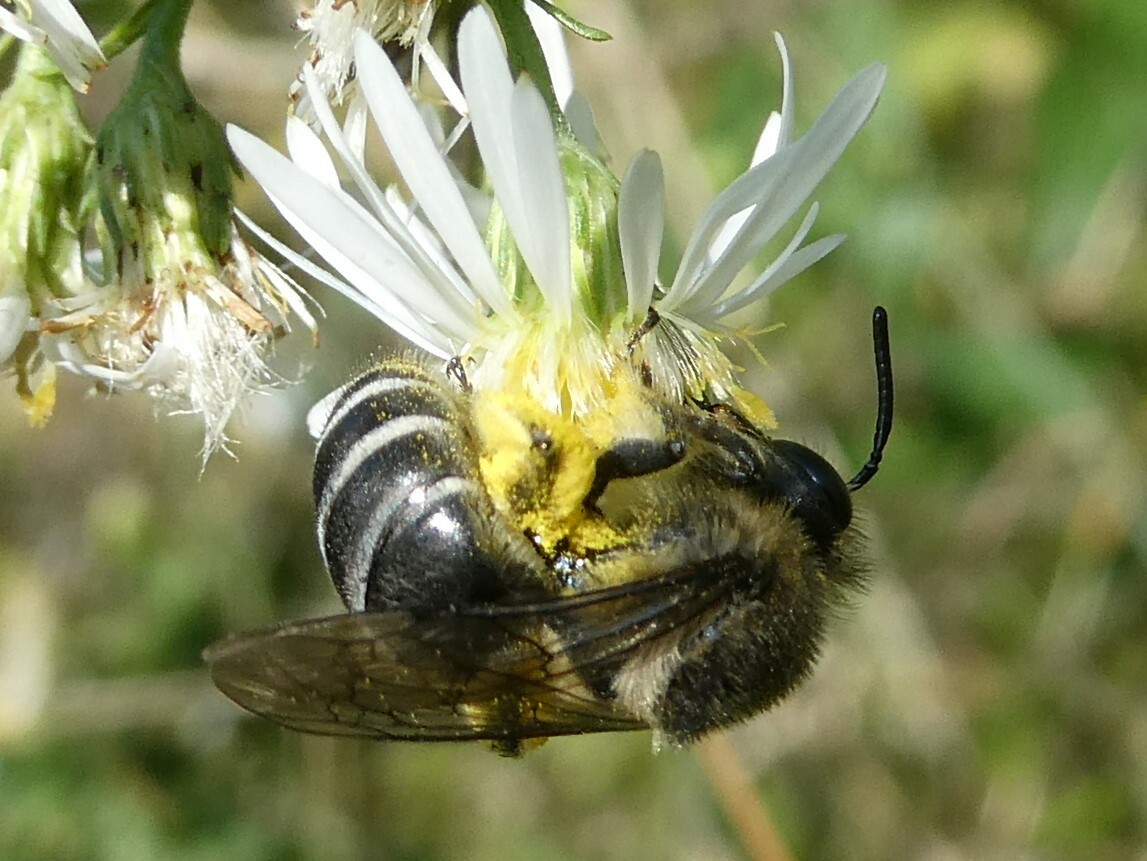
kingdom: Animalia
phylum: Arthropoda
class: Insecta
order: Hymenoptera
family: Colletidae
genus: Colletes
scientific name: Colletes compactus
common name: Aster cellophane bee
